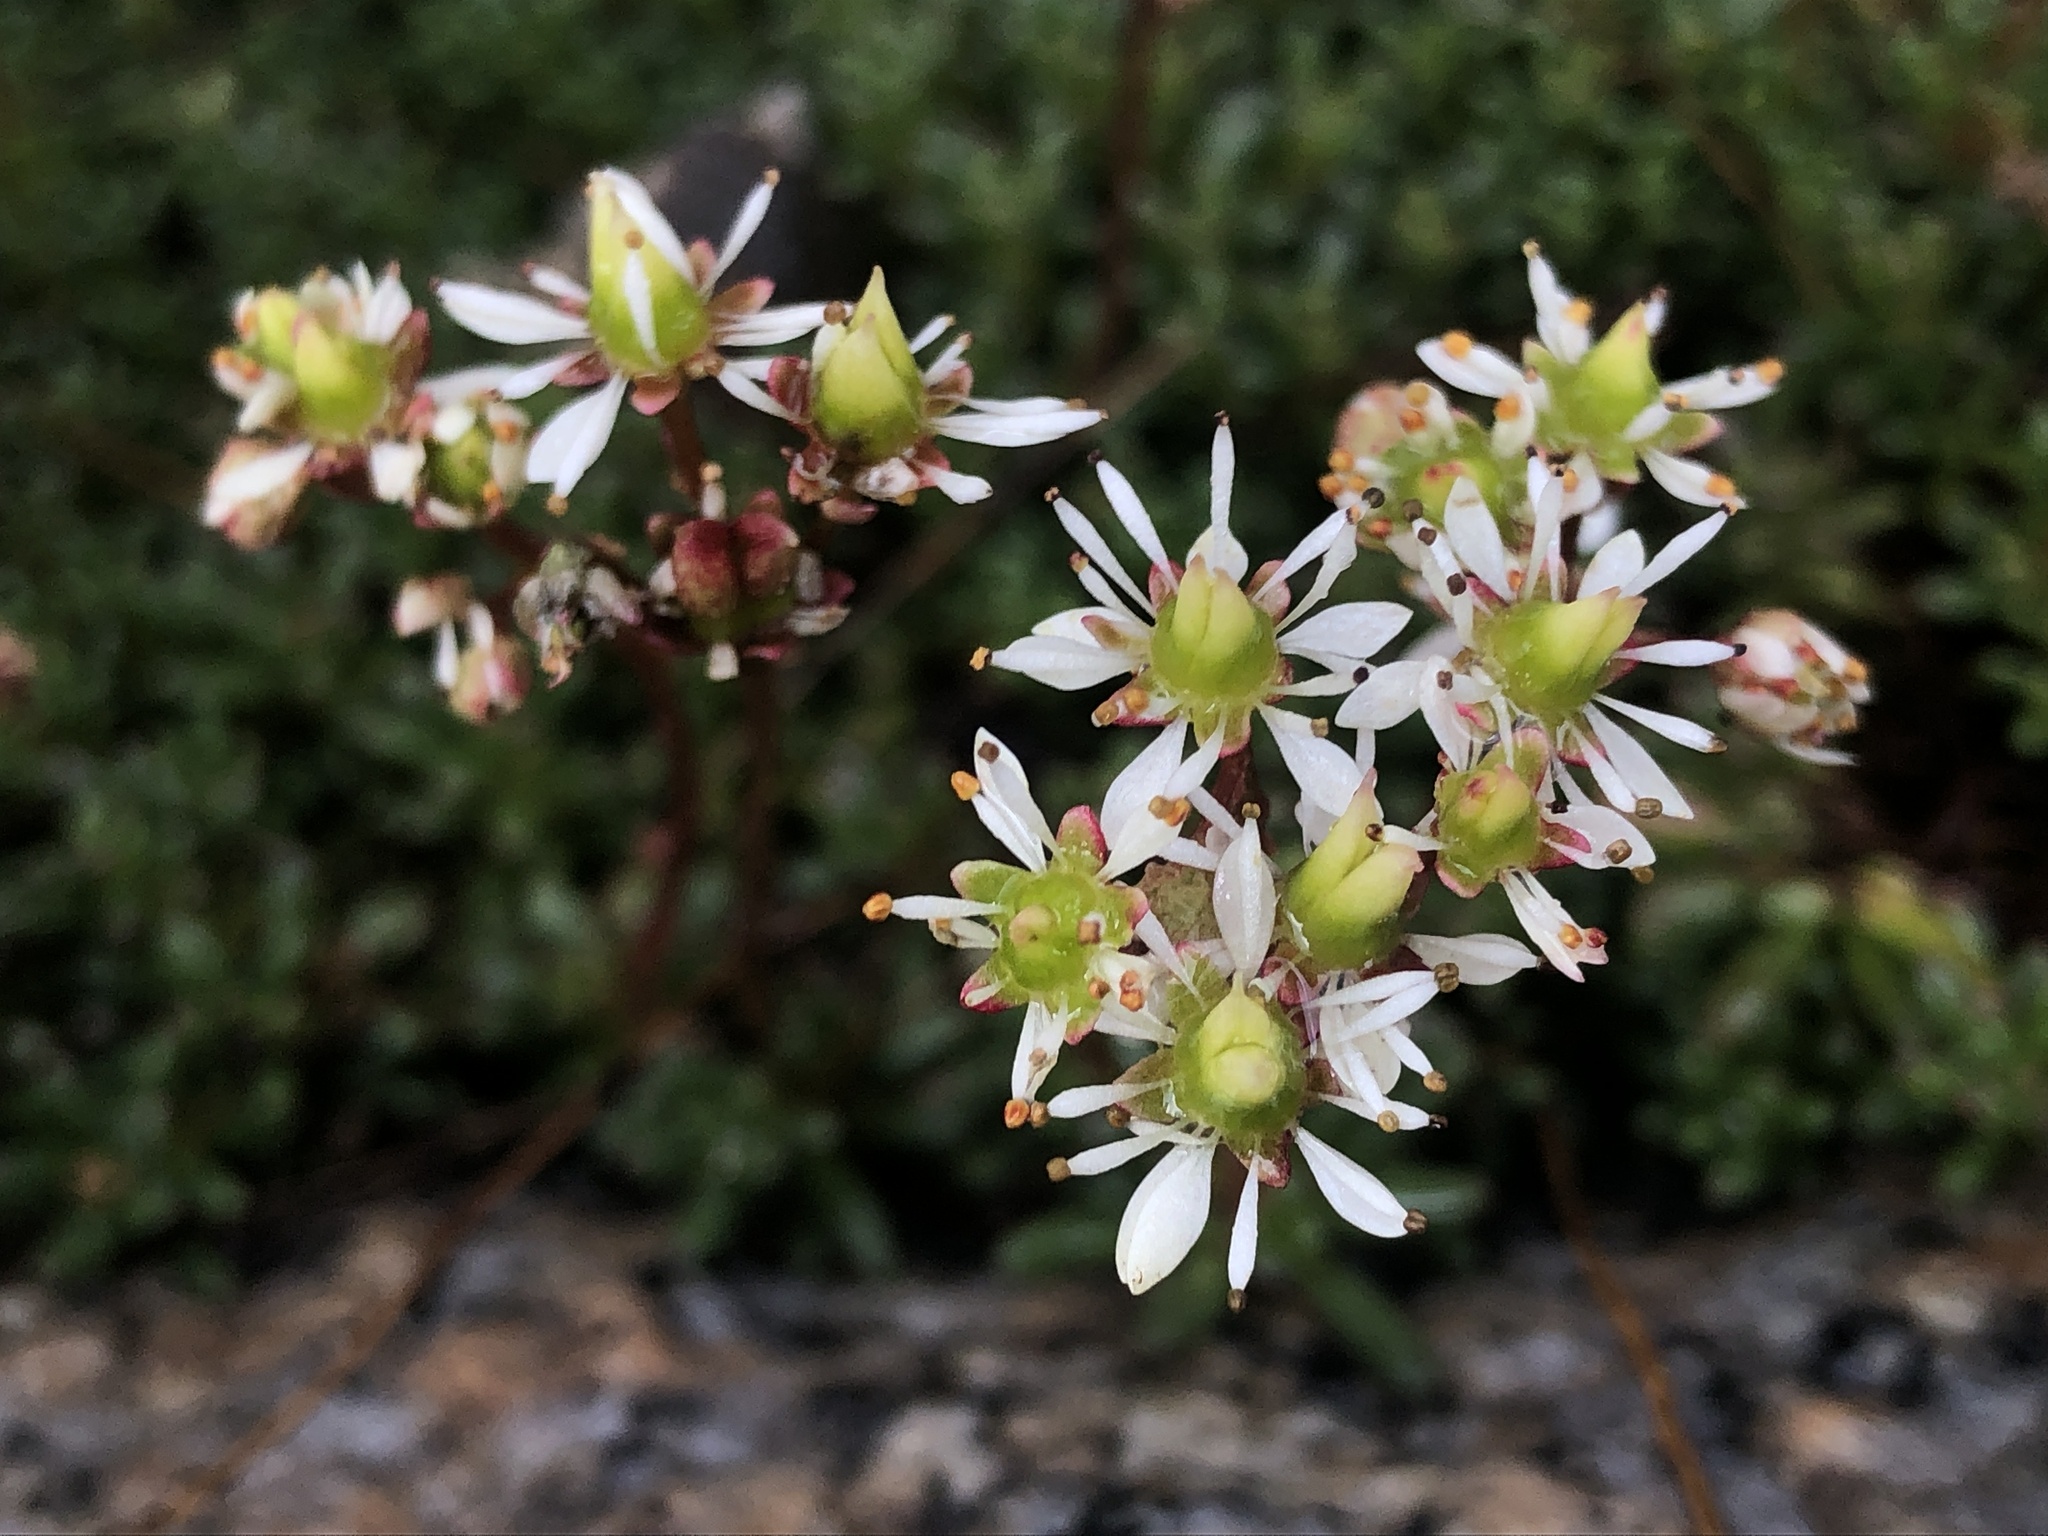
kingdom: Plantae
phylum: Tracheophyta
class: Magnoliopsida
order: Saxifragales
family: Saxifragaceae
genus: Micranthes
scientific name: Micranthes tolmiei
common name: Tolmie's saxifrage
